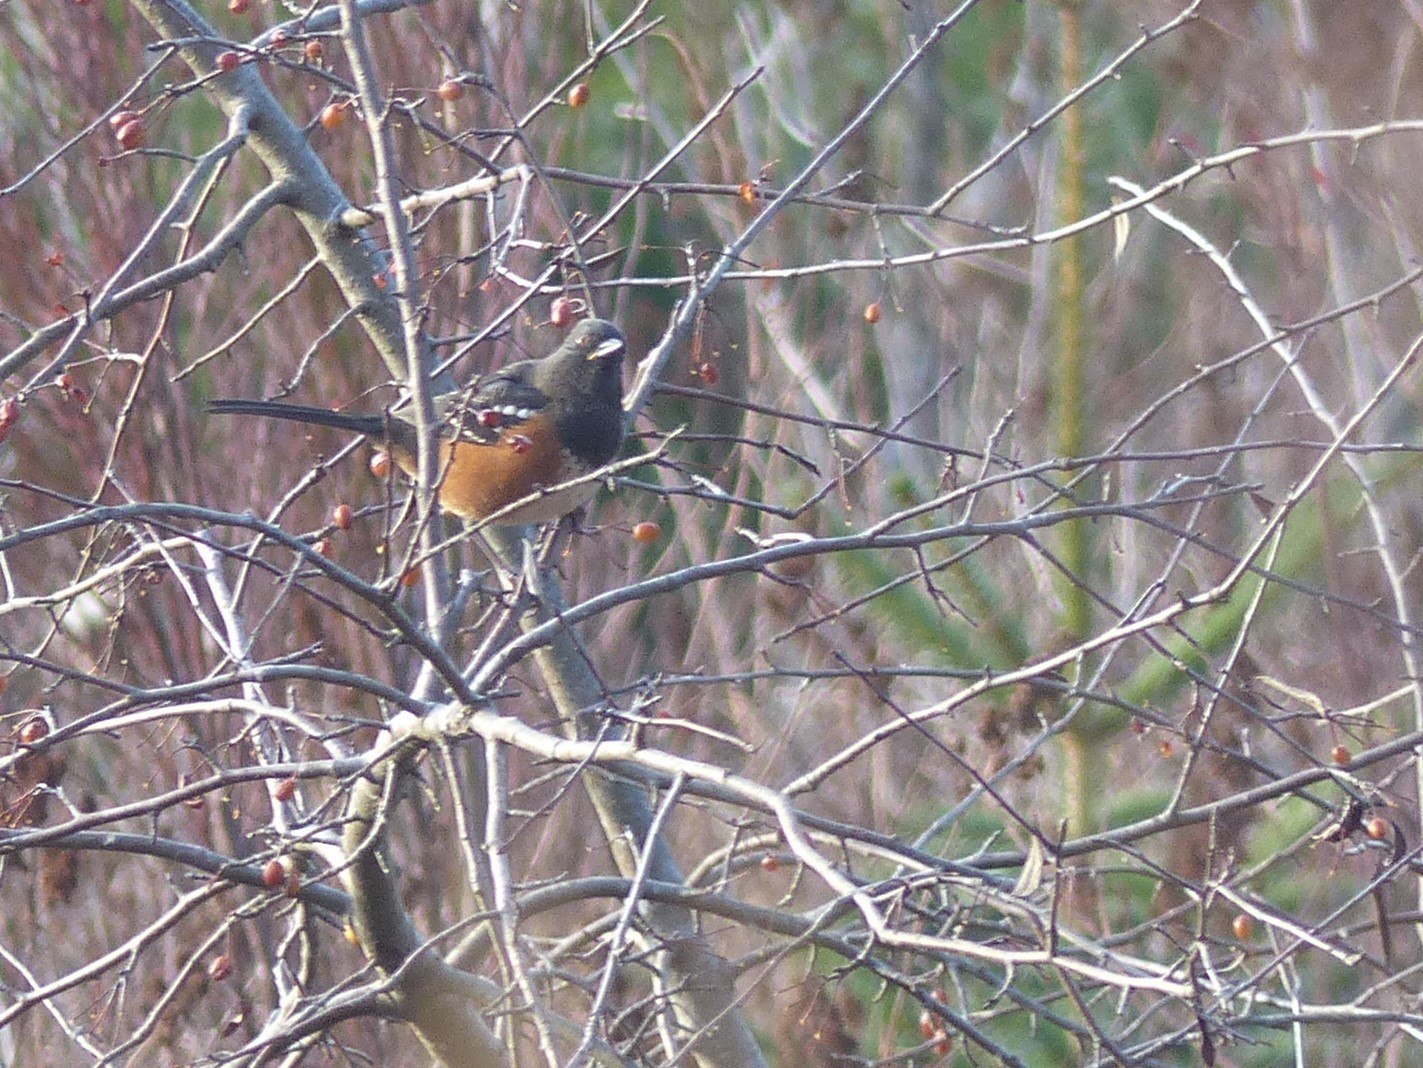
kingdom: Animalia
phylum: Chordata
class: Aves
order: Passeriformes
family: Passerellidae
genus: Pipilo
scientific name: Pipilo maculatus
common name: Spotted towhee
